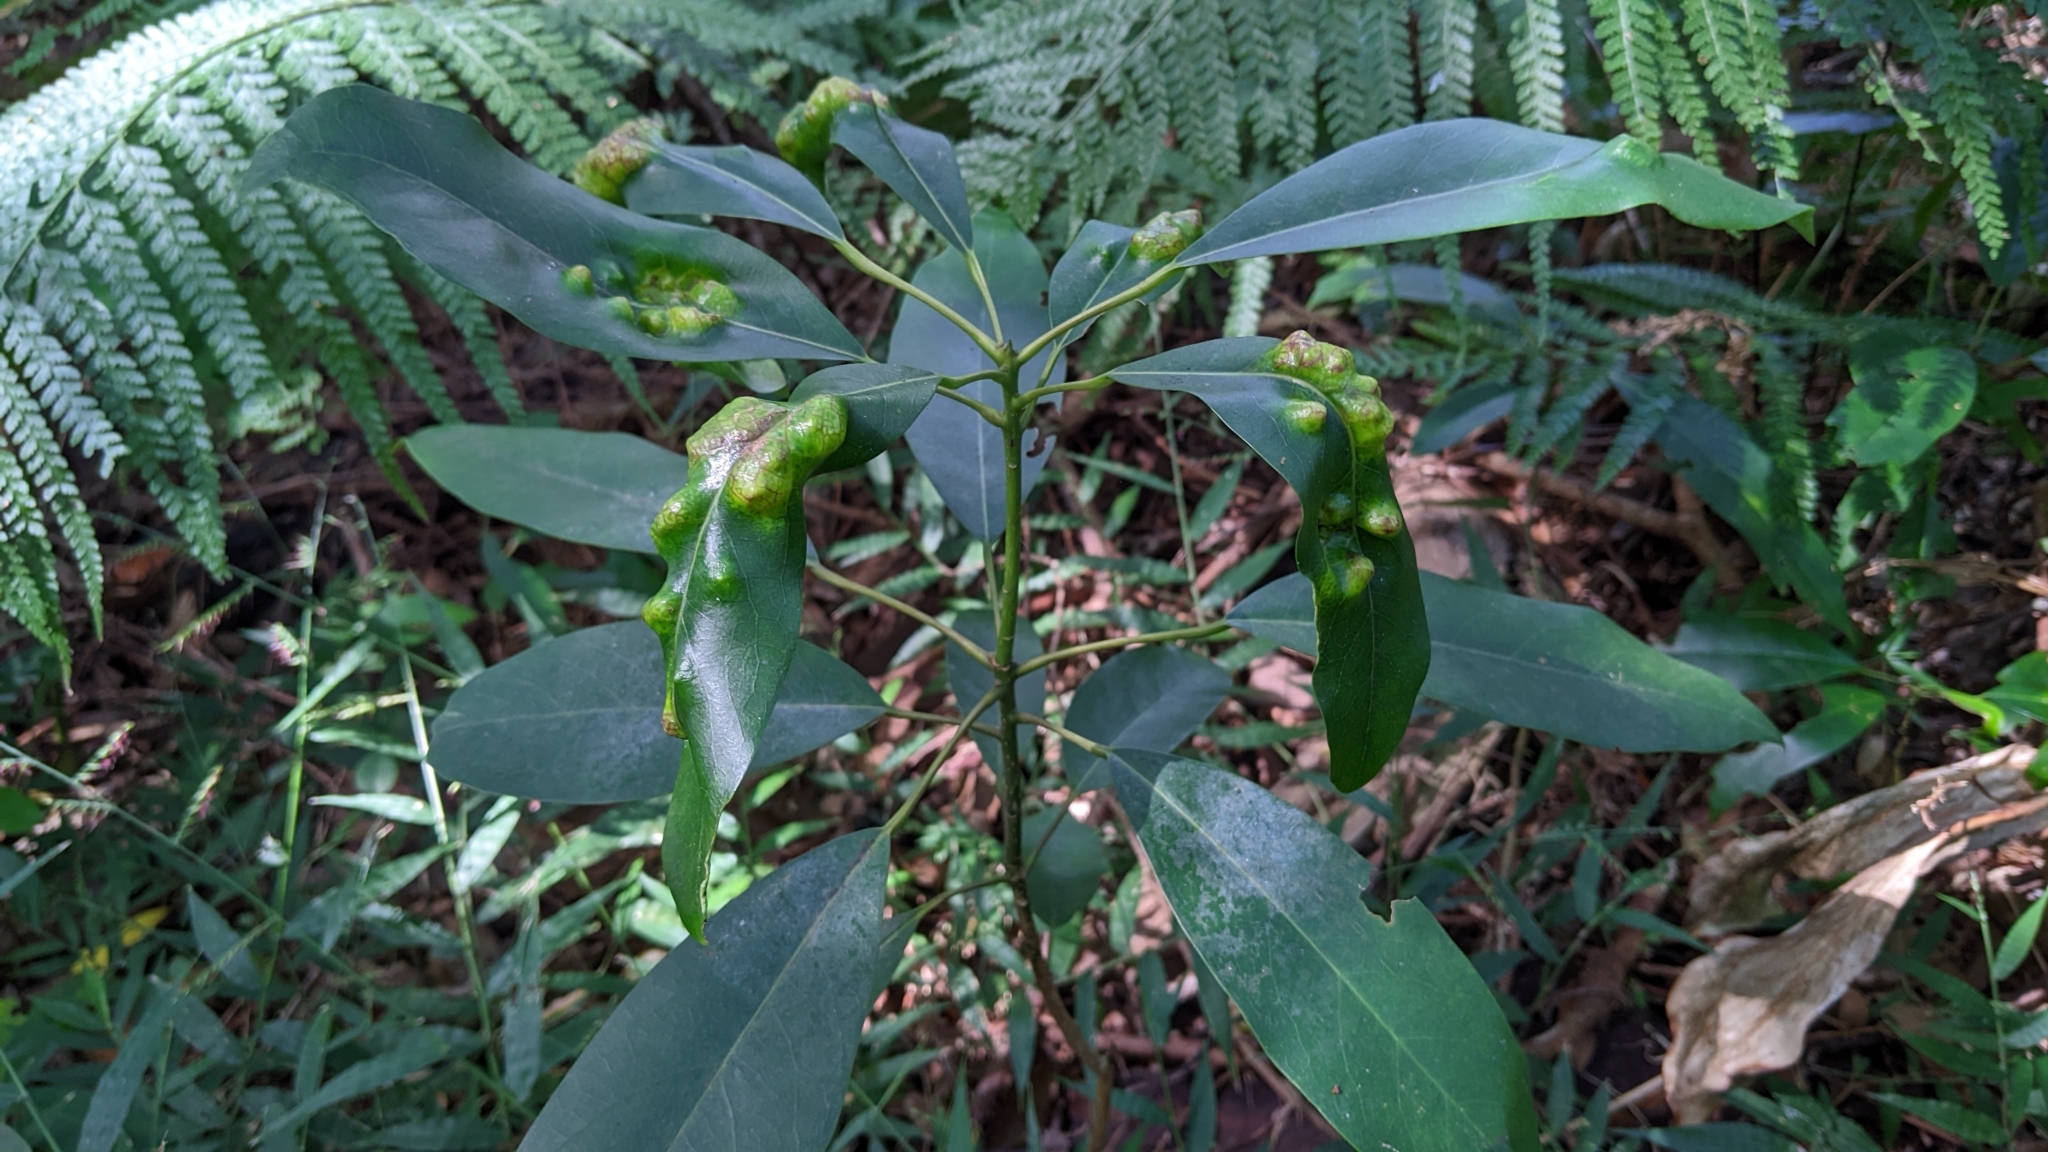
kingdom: Plantae
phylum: Tracheophyta
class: Magnoliopsida
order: Saxifragales
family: Daphniphyllaceae
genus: Daphniphyllum
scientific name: Daphniphyllum pentandrum
